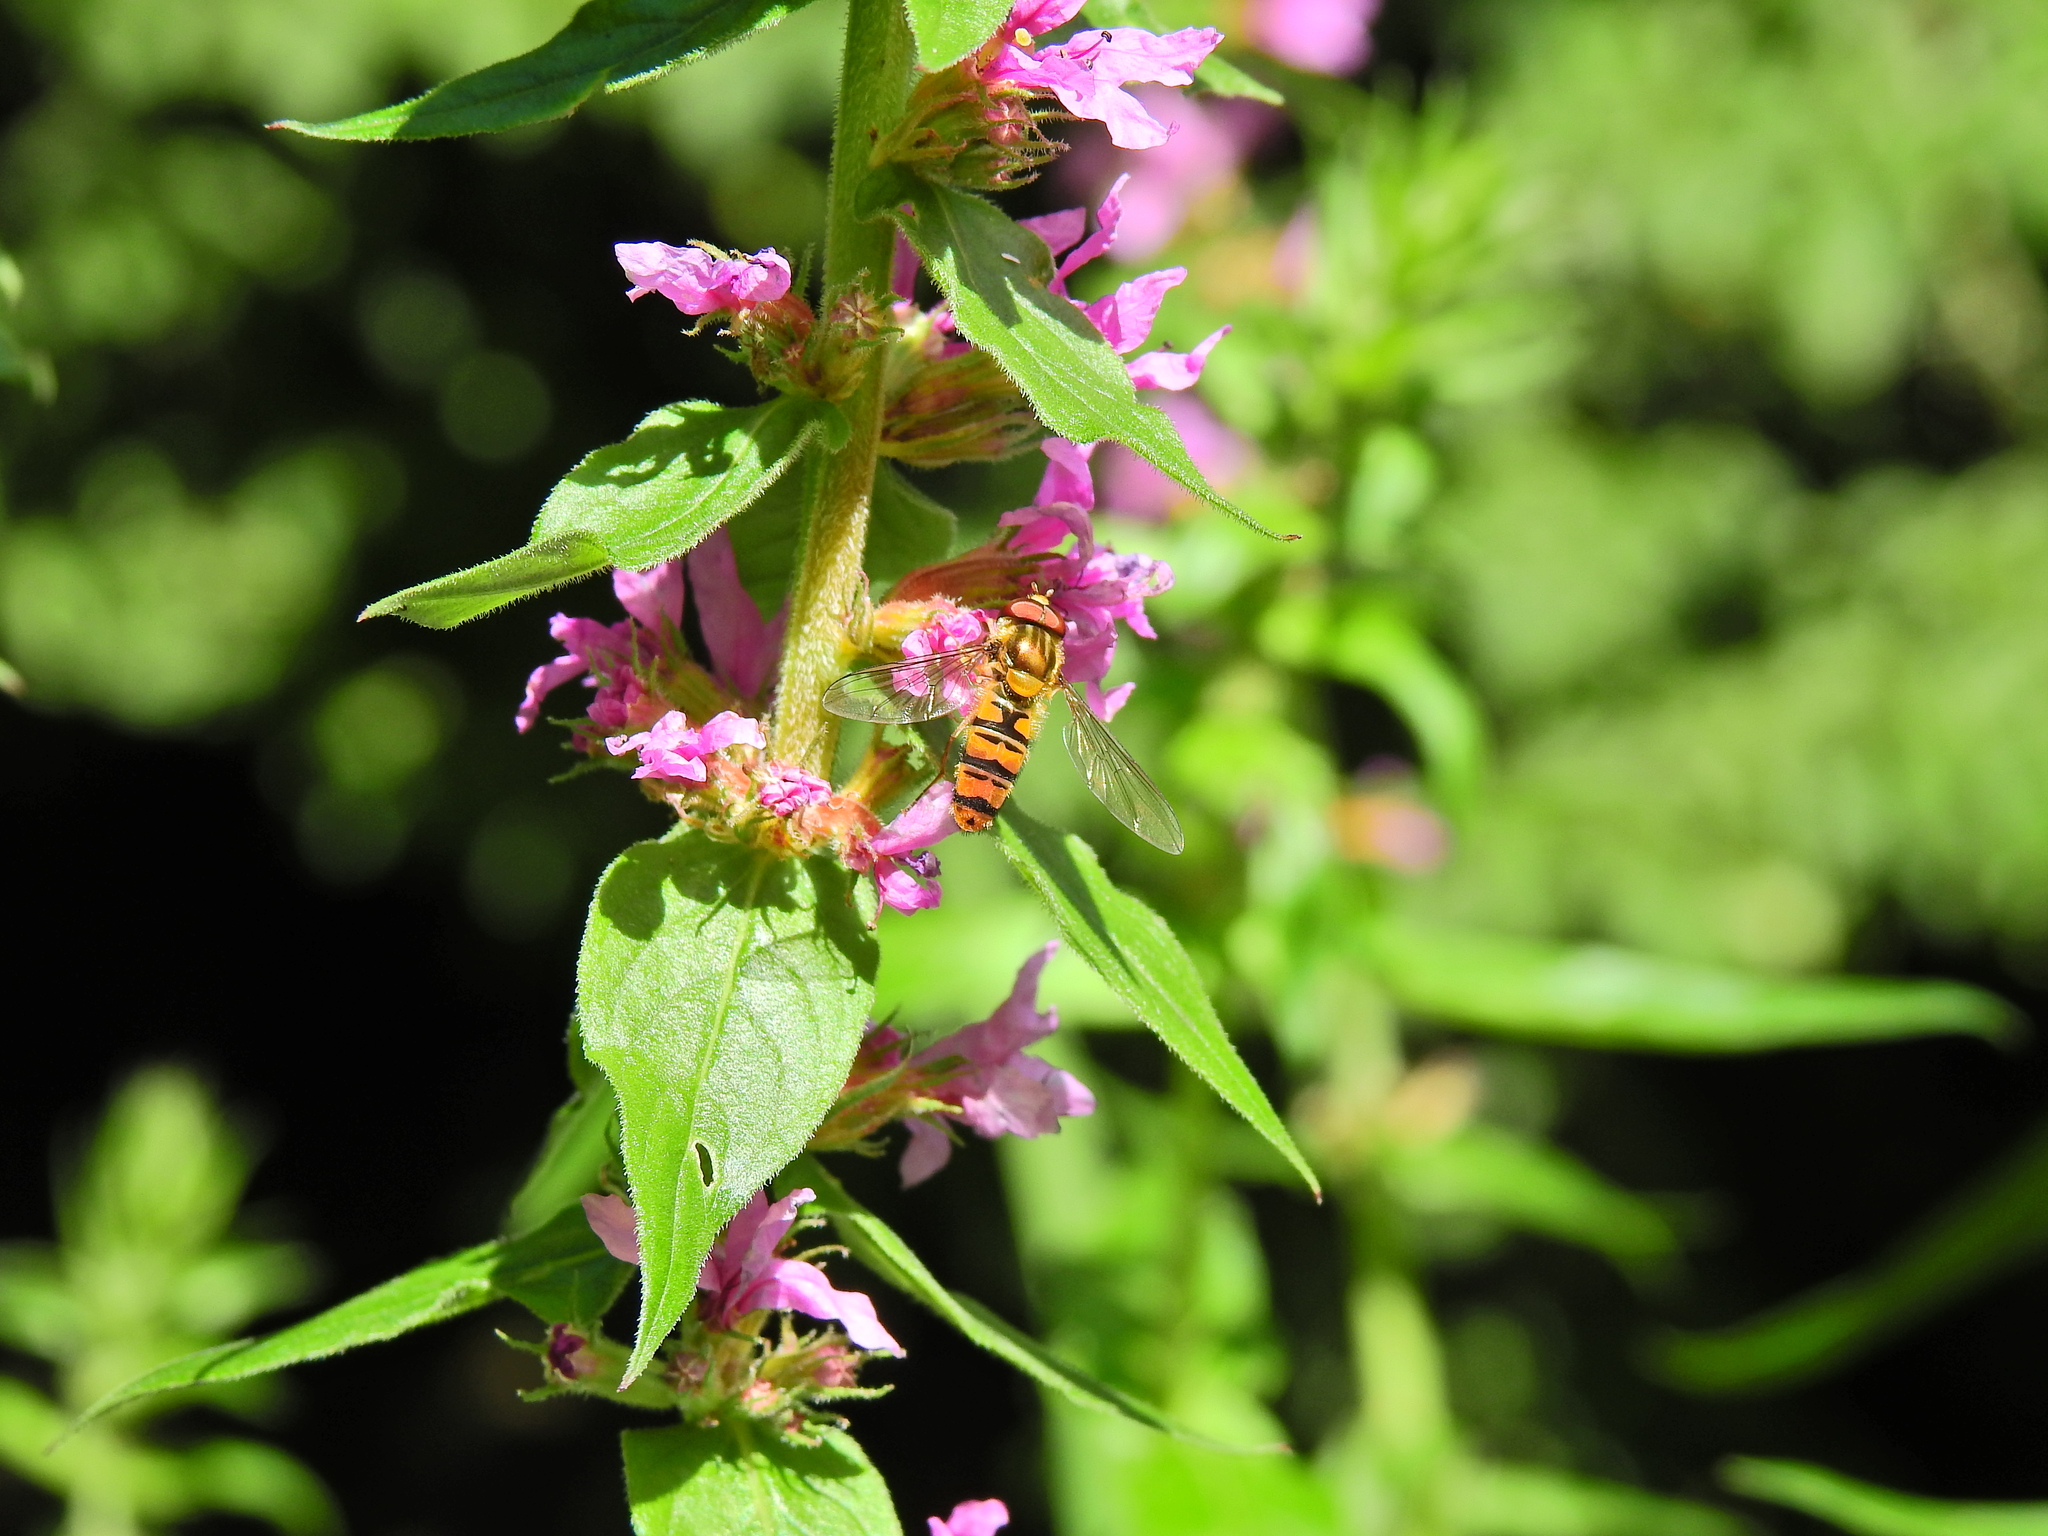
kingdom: Animalia
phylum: Arthropoda
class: Insecta
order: Diptera
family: Syrphidae
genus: Episyrphus
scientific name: Episyrphus balteatus
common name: Marmalade hoverfly
